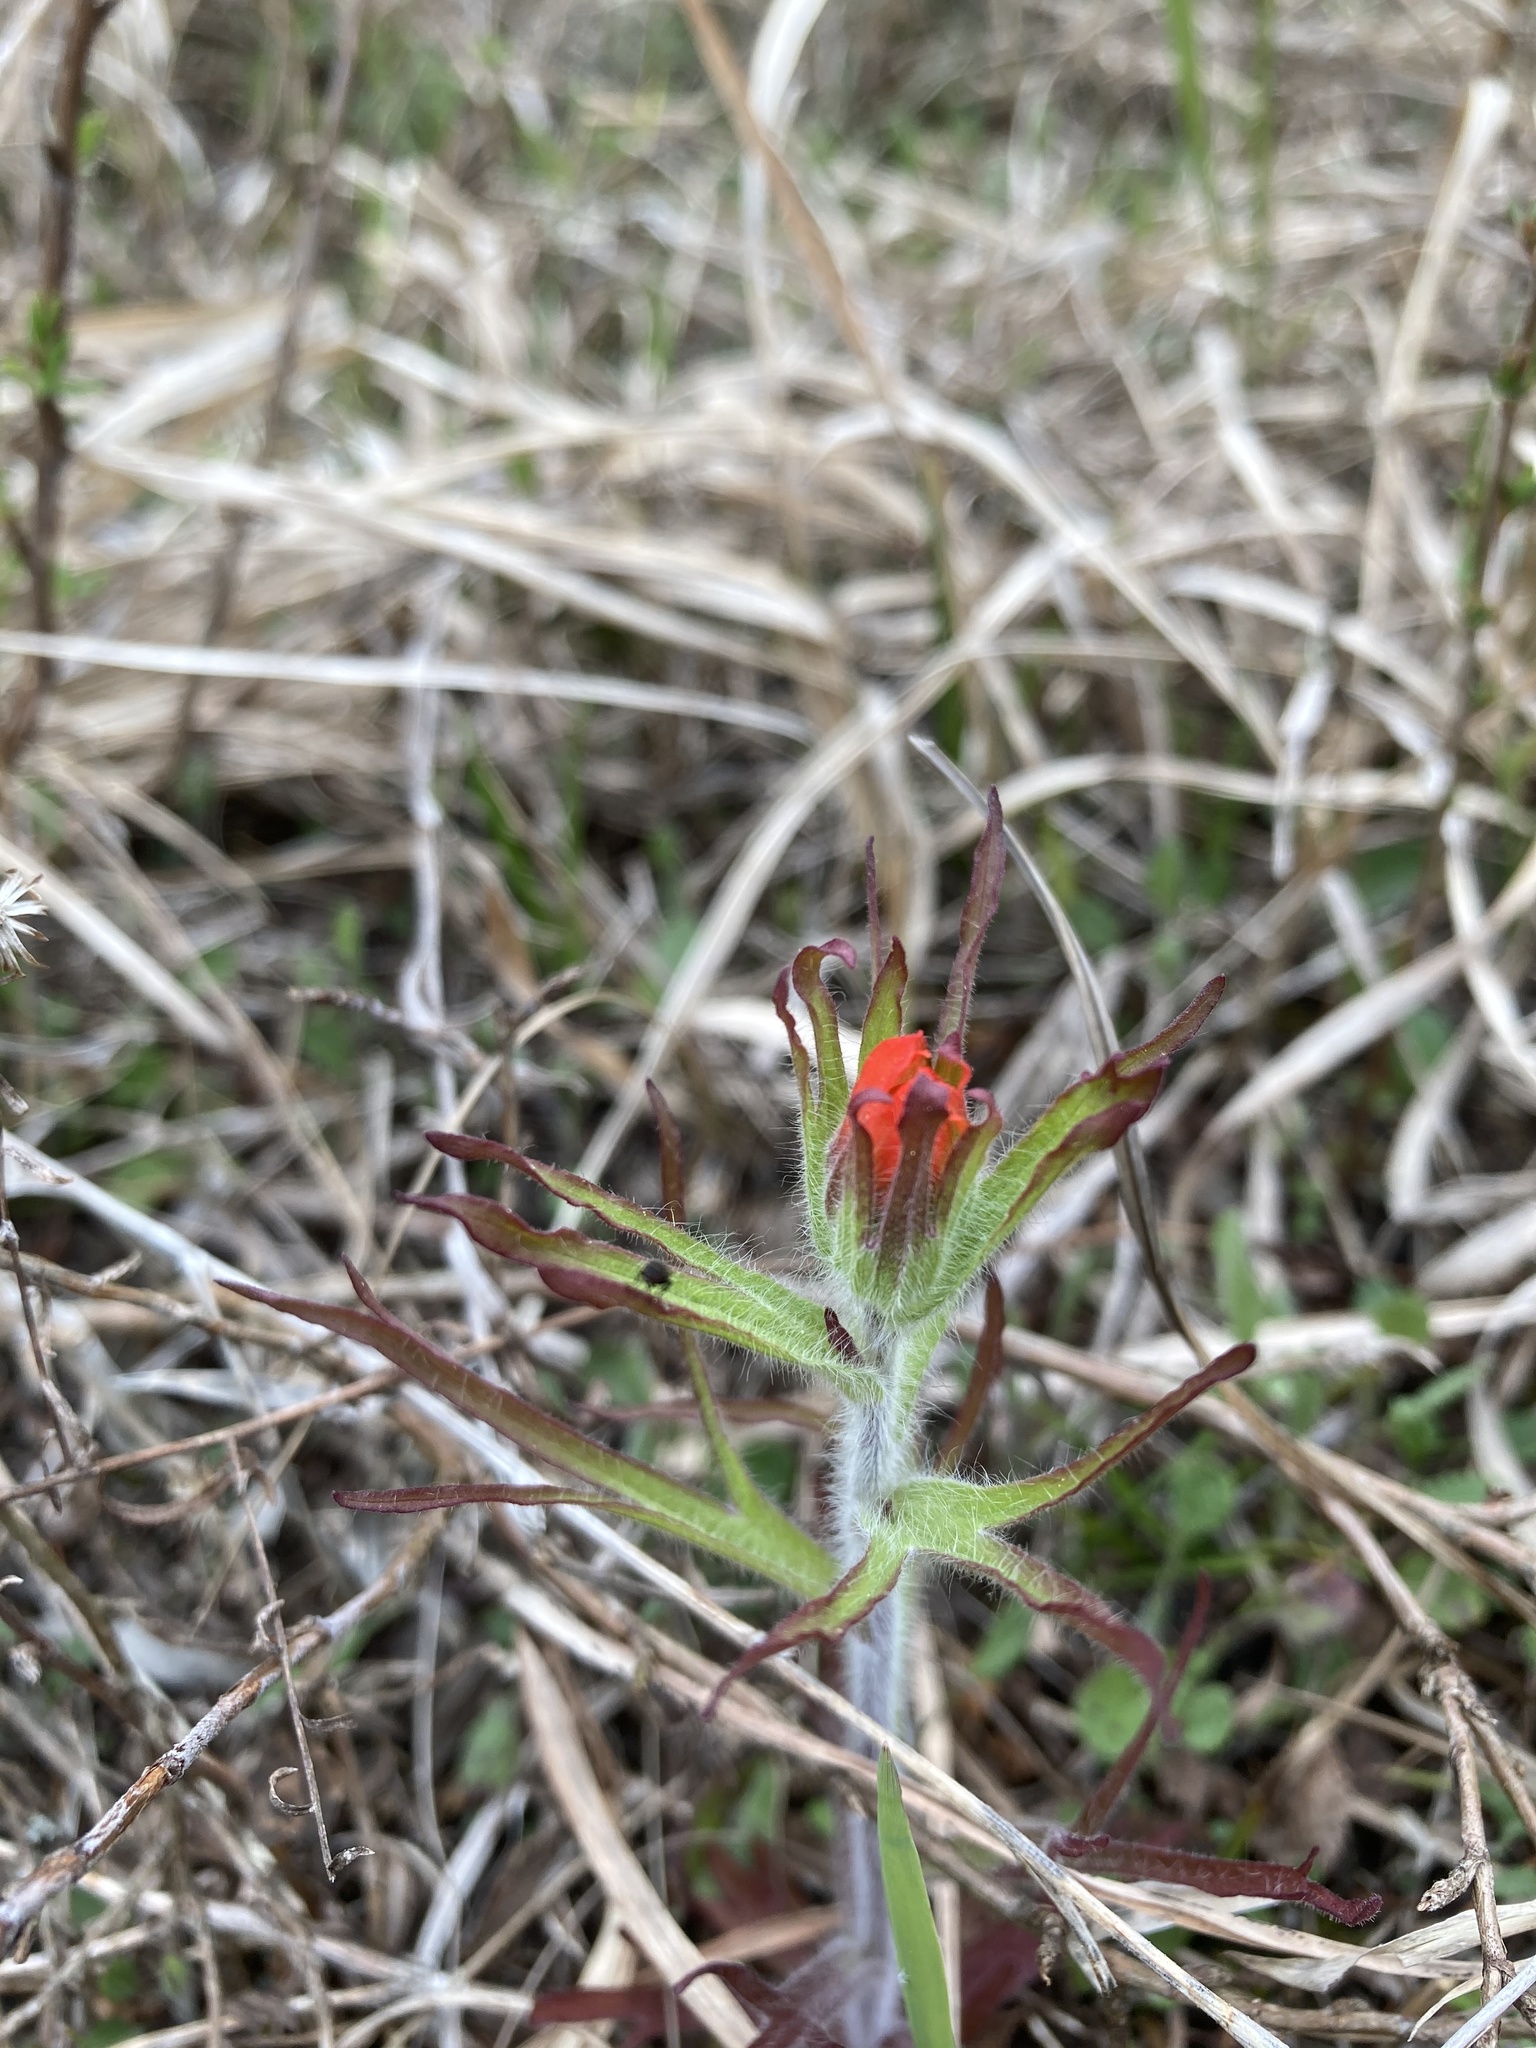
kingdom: Plantae
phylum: Tracheophyta
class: Magnoliopsida
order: Lamiales
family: Orobanchaceae
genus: Castilleja
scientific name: Castilleja coccinea
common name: Scarlet paintbrush
